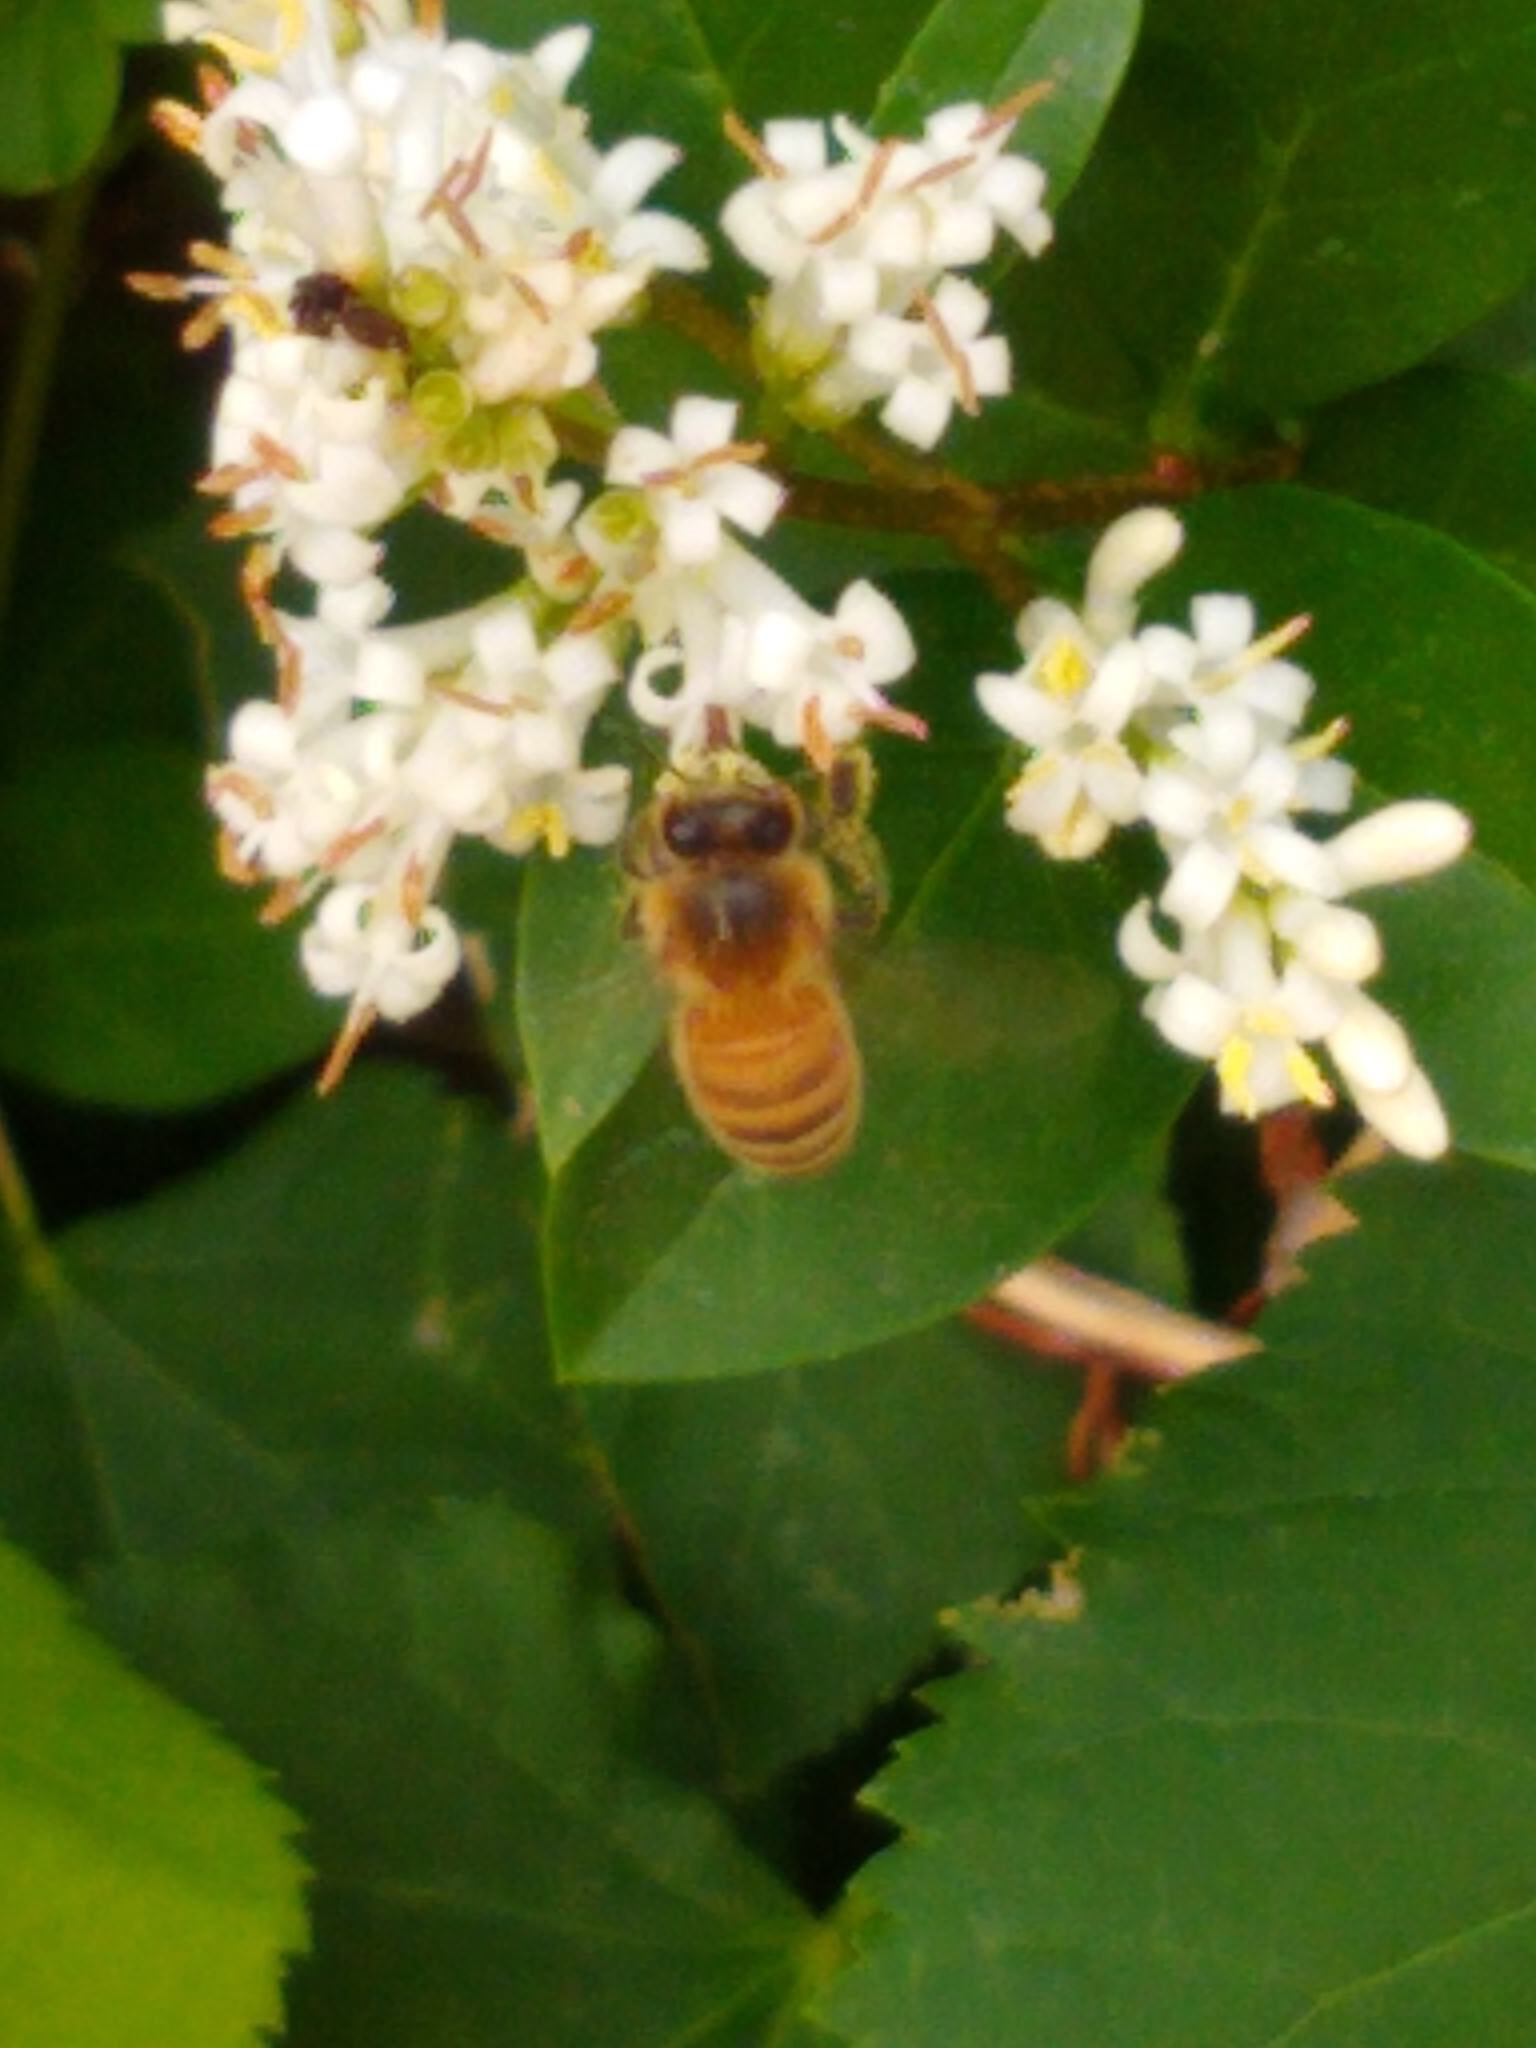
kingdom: Animalia
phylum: Arthropoda
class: Insecta
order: Hymenoptera
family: Apidae
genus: Apis
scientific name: Apis mellifera
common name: Honey bee
